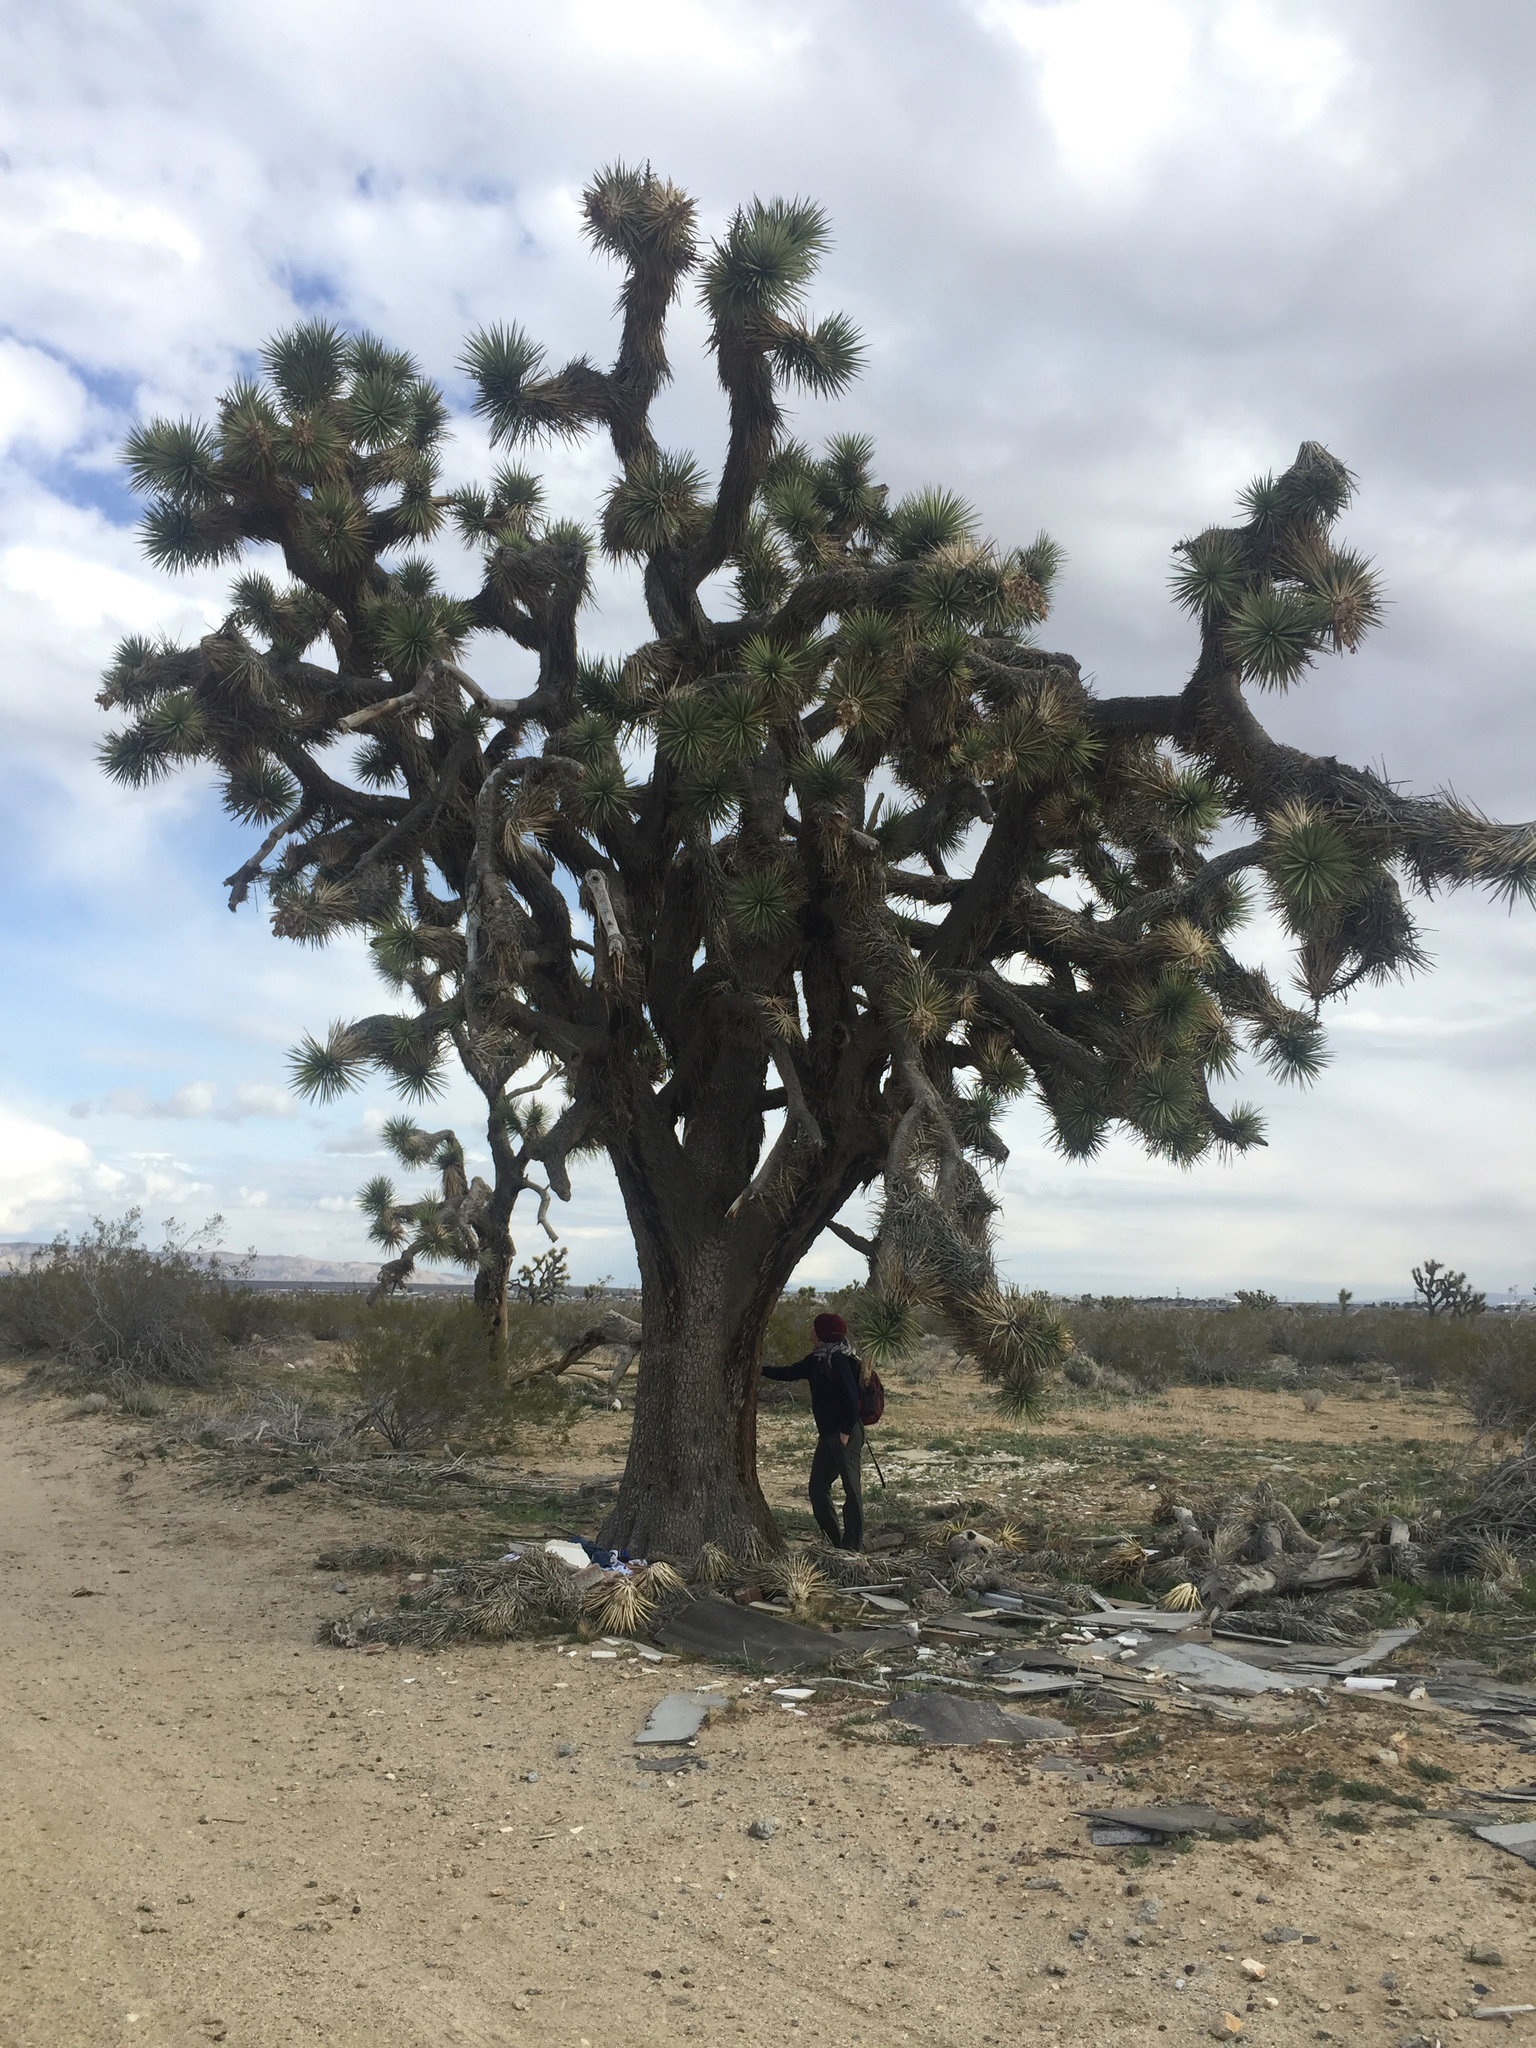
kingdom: Plantae
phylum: Tracheophyta
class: Liliopsida
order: Asparagales
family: Asparagaceae
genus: Yucca
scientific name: Yucca brevifolia
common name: Joshua tree
